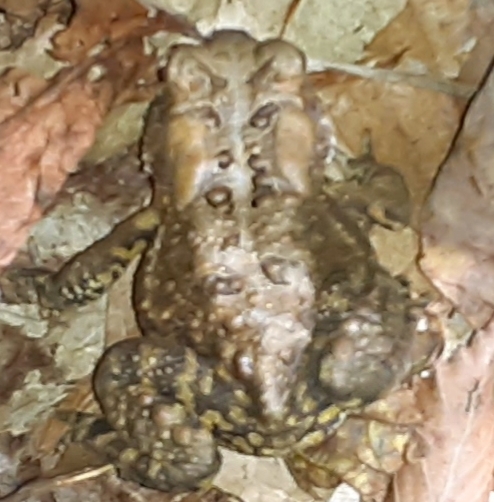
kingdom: Animalia
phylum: Chordata
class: Amphibia
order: Anura
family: Bufonidae
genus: Anaxyrus
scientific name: Anaxyrus americanus
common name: American toad
